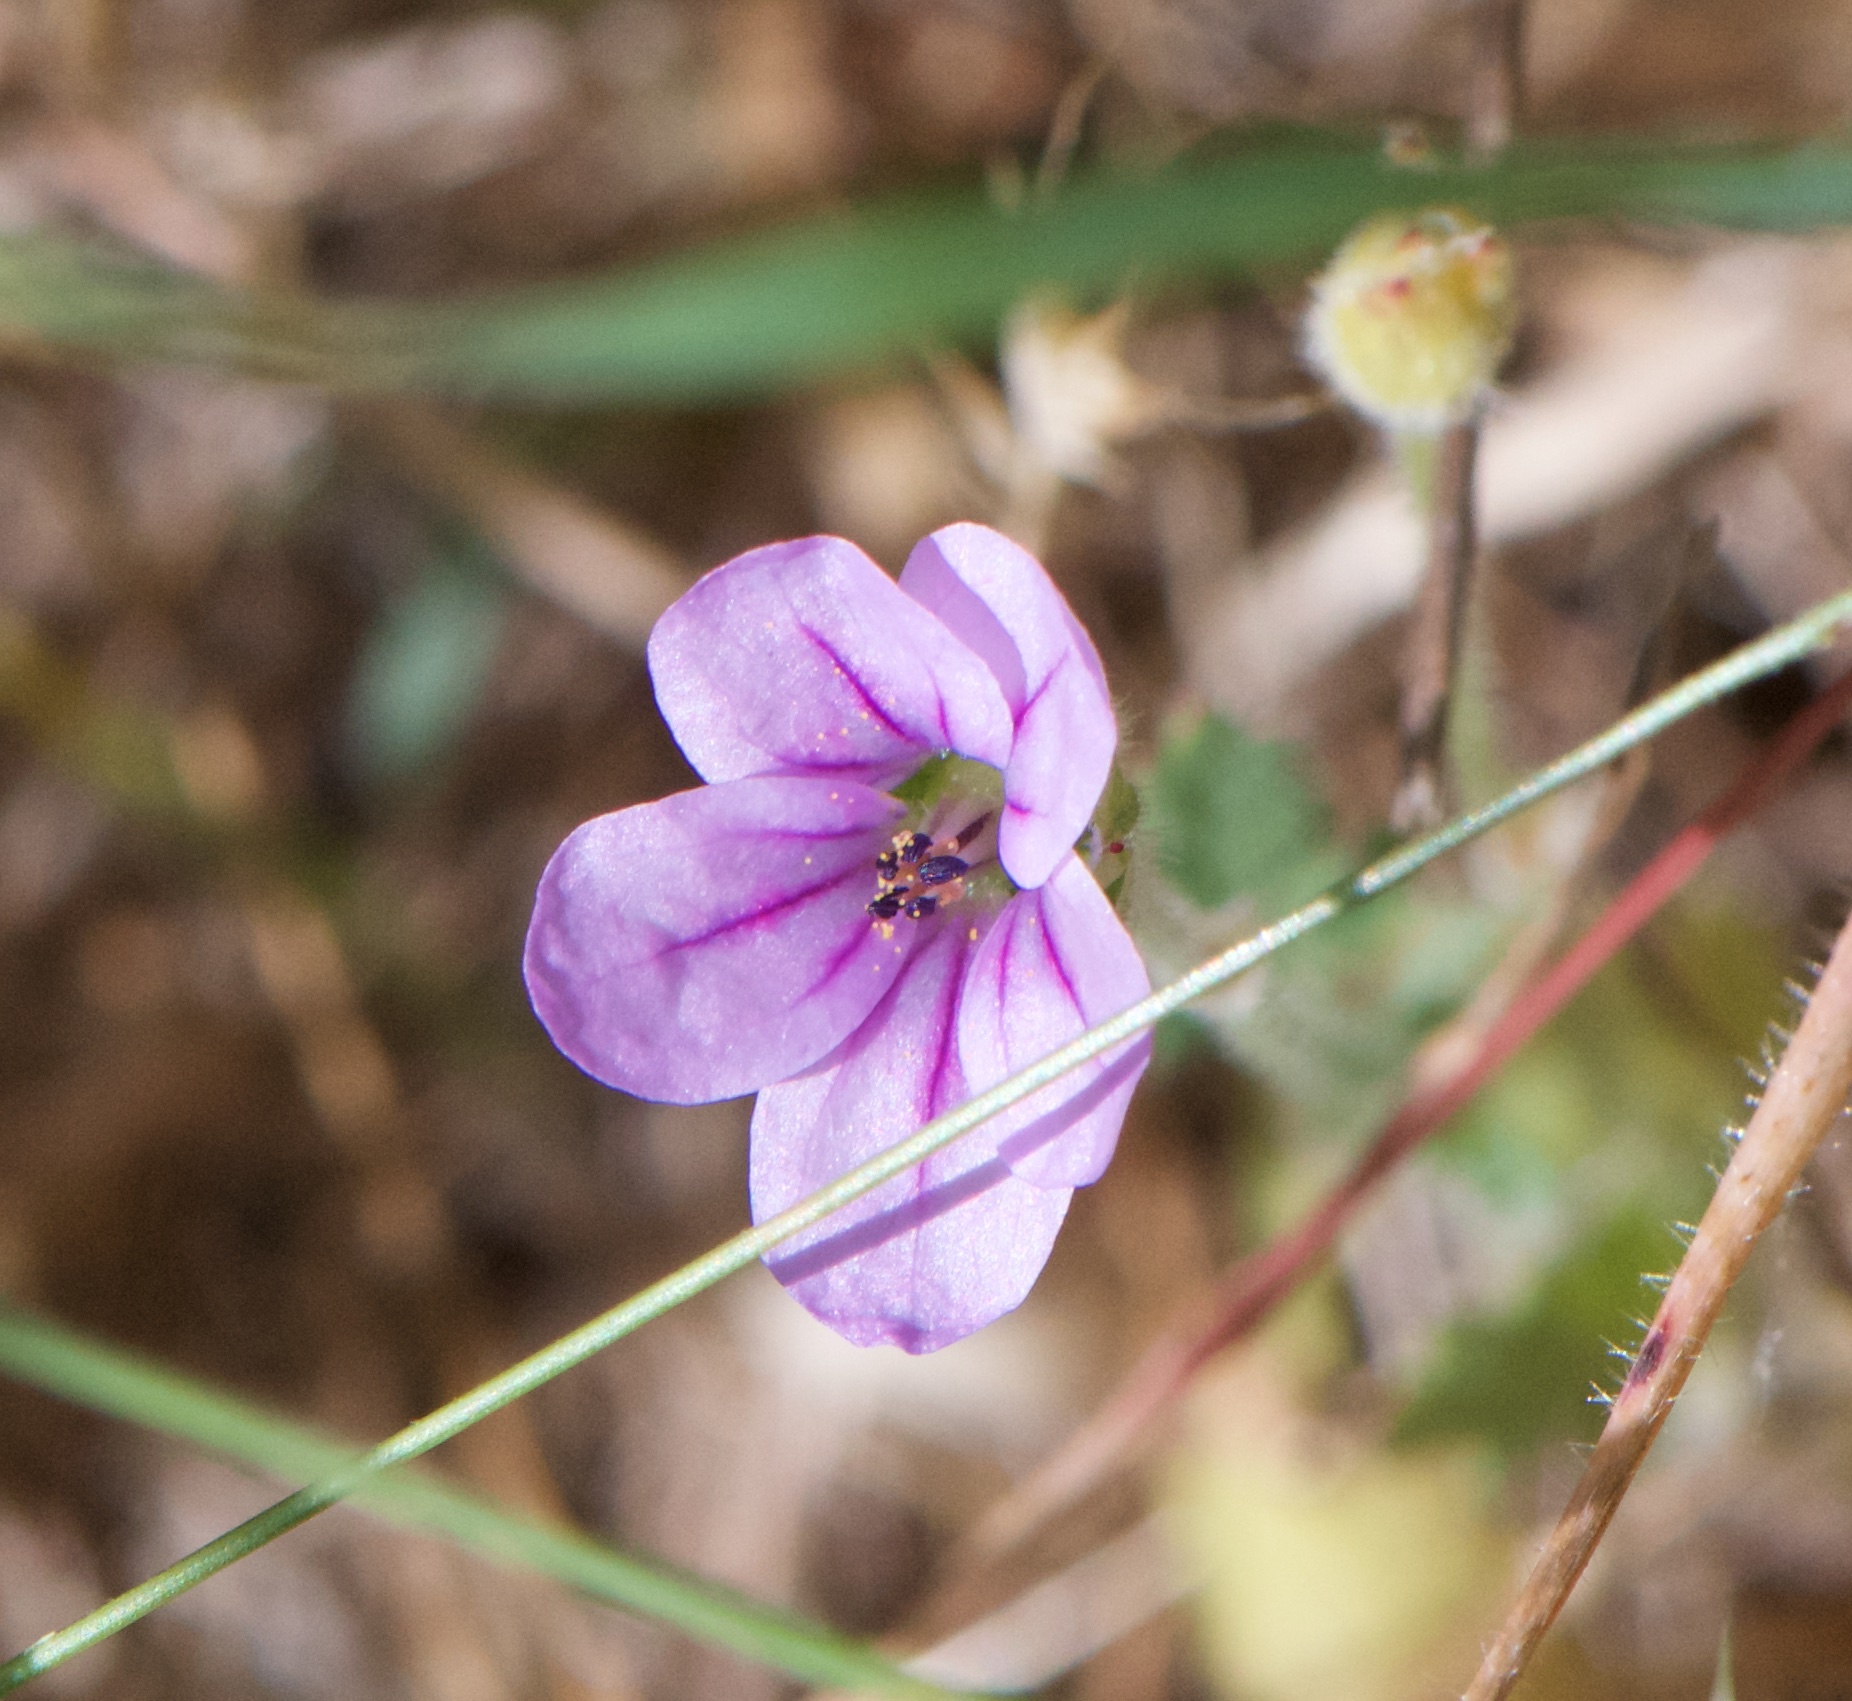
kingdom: Plantae
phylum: Tracheophyta
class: Magnoliopsida
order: Geraniales
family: Geraniaceae
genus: Erodium
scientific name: Erodium botrys
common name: Mediterranean stork's-bill
